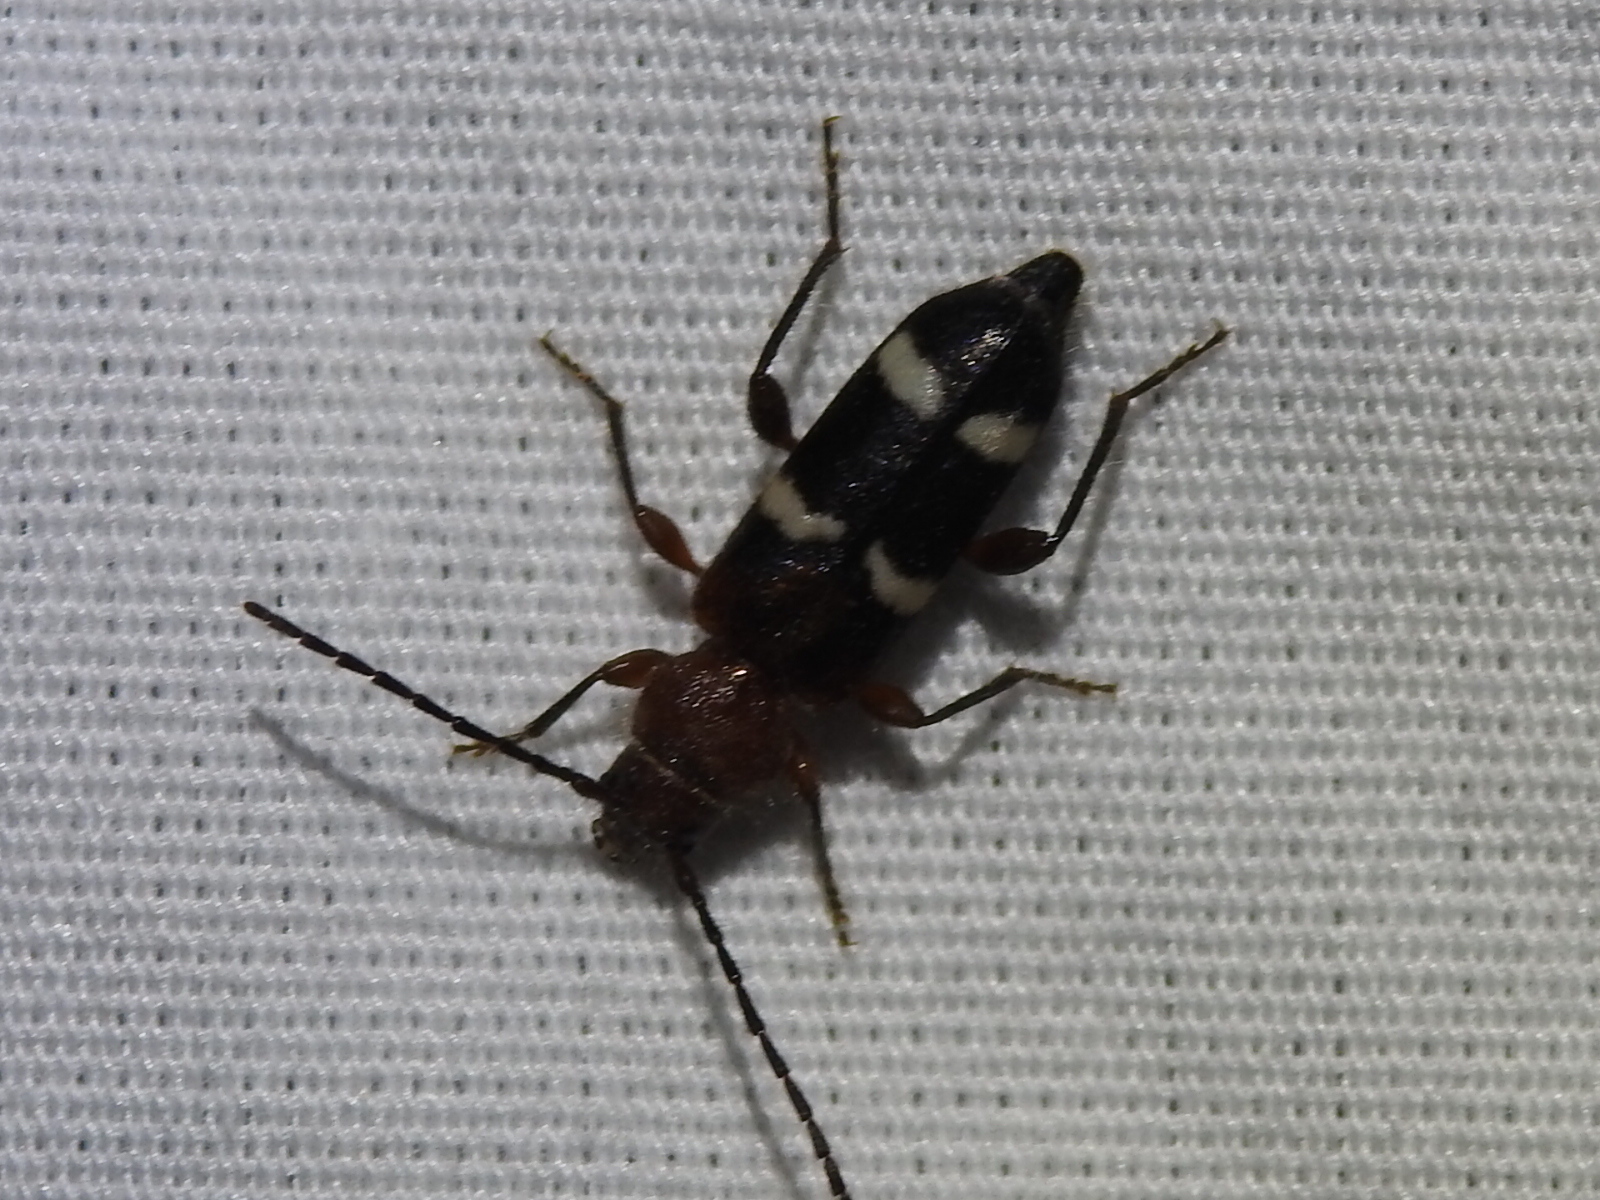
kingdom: Animalia
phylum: Arthropoda
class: Insecta
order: Coleoptera
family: Cerambycidae
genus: Phymatodes
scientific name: Phymatodes varius
